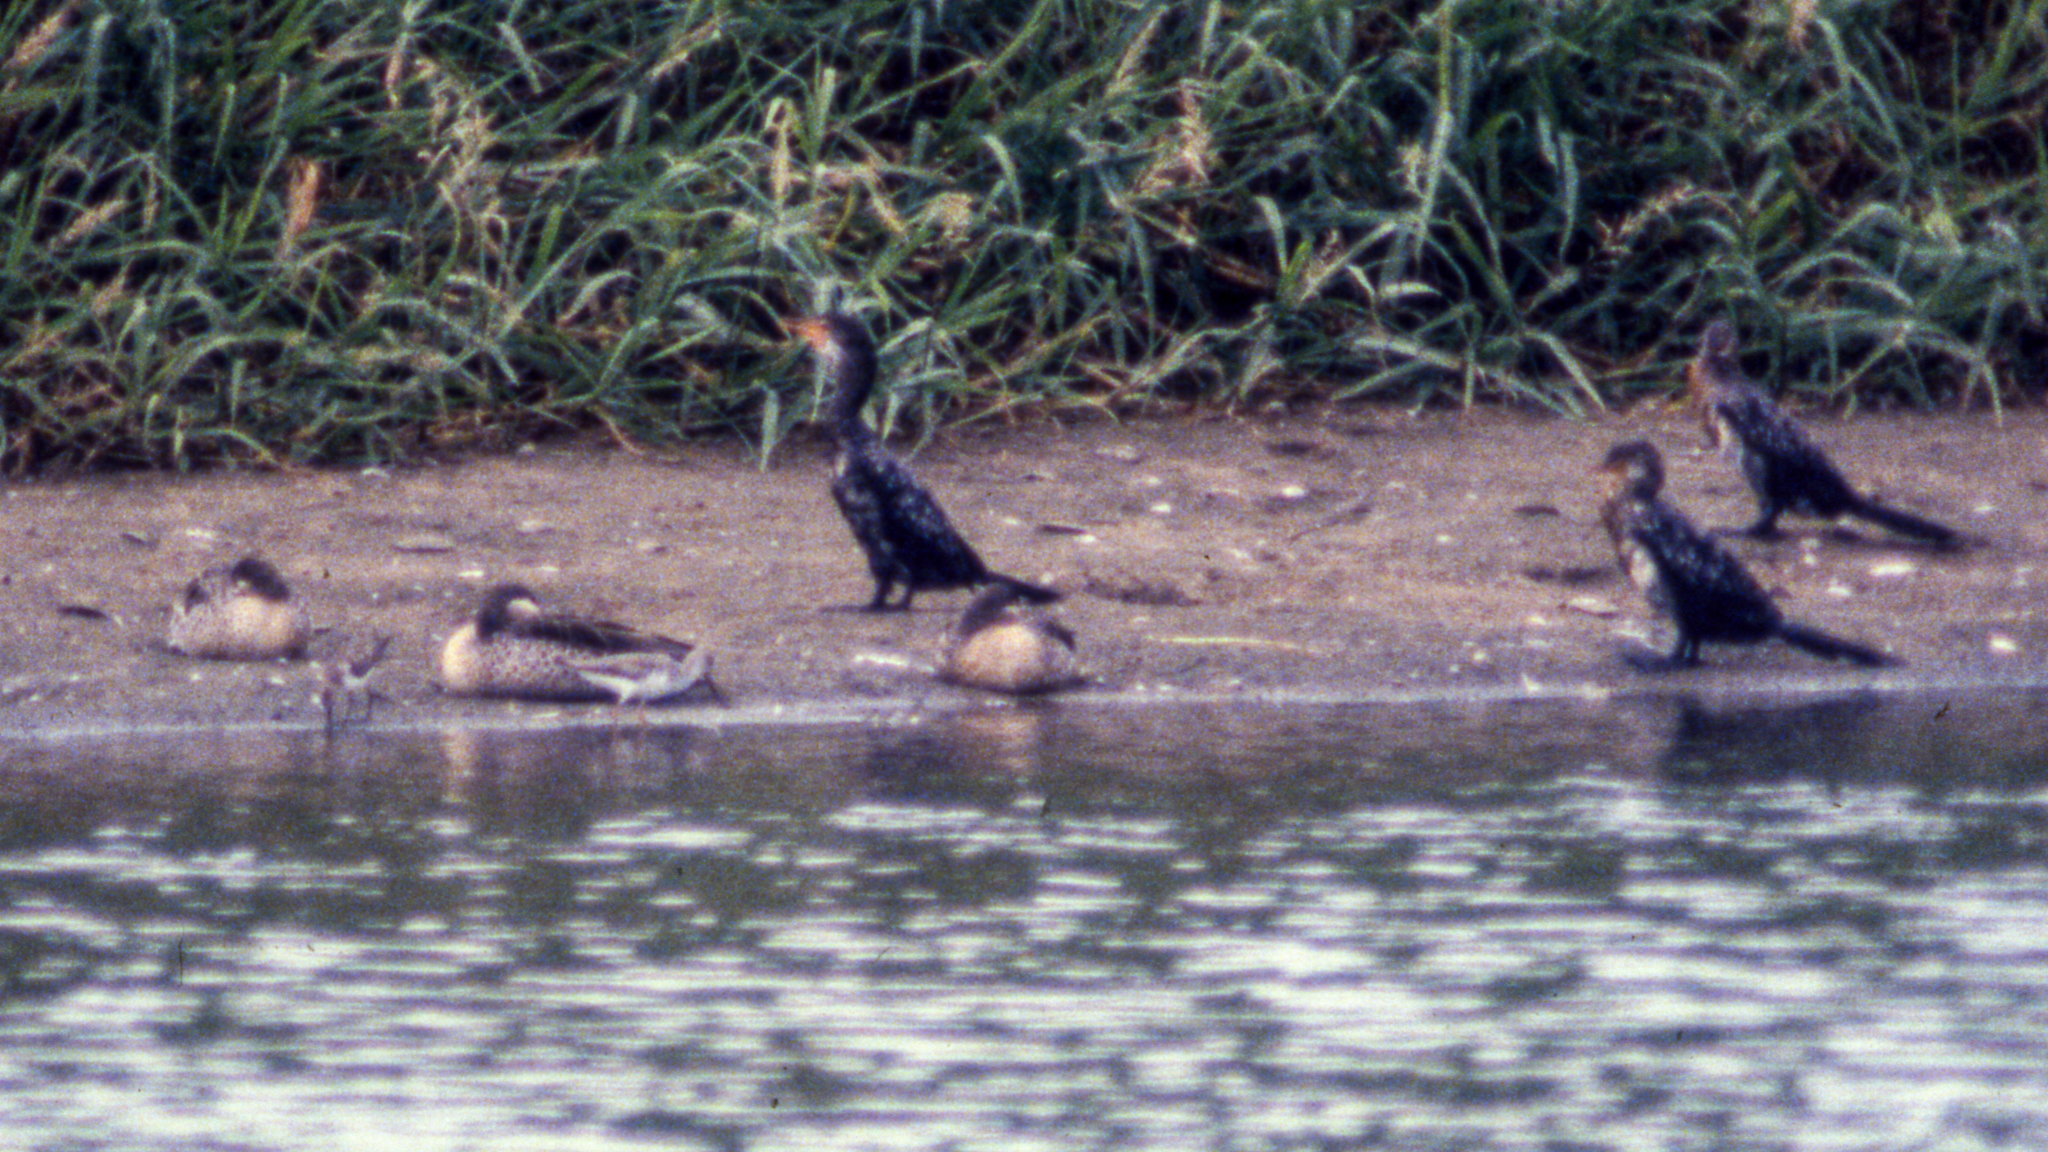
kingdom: Animalia
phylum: Chordata
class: Aves
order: Suliformes
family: Phalacrocoracidae
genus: Microcarbo
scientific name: Microcarbo africanus
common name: Long-tailed cormorant
